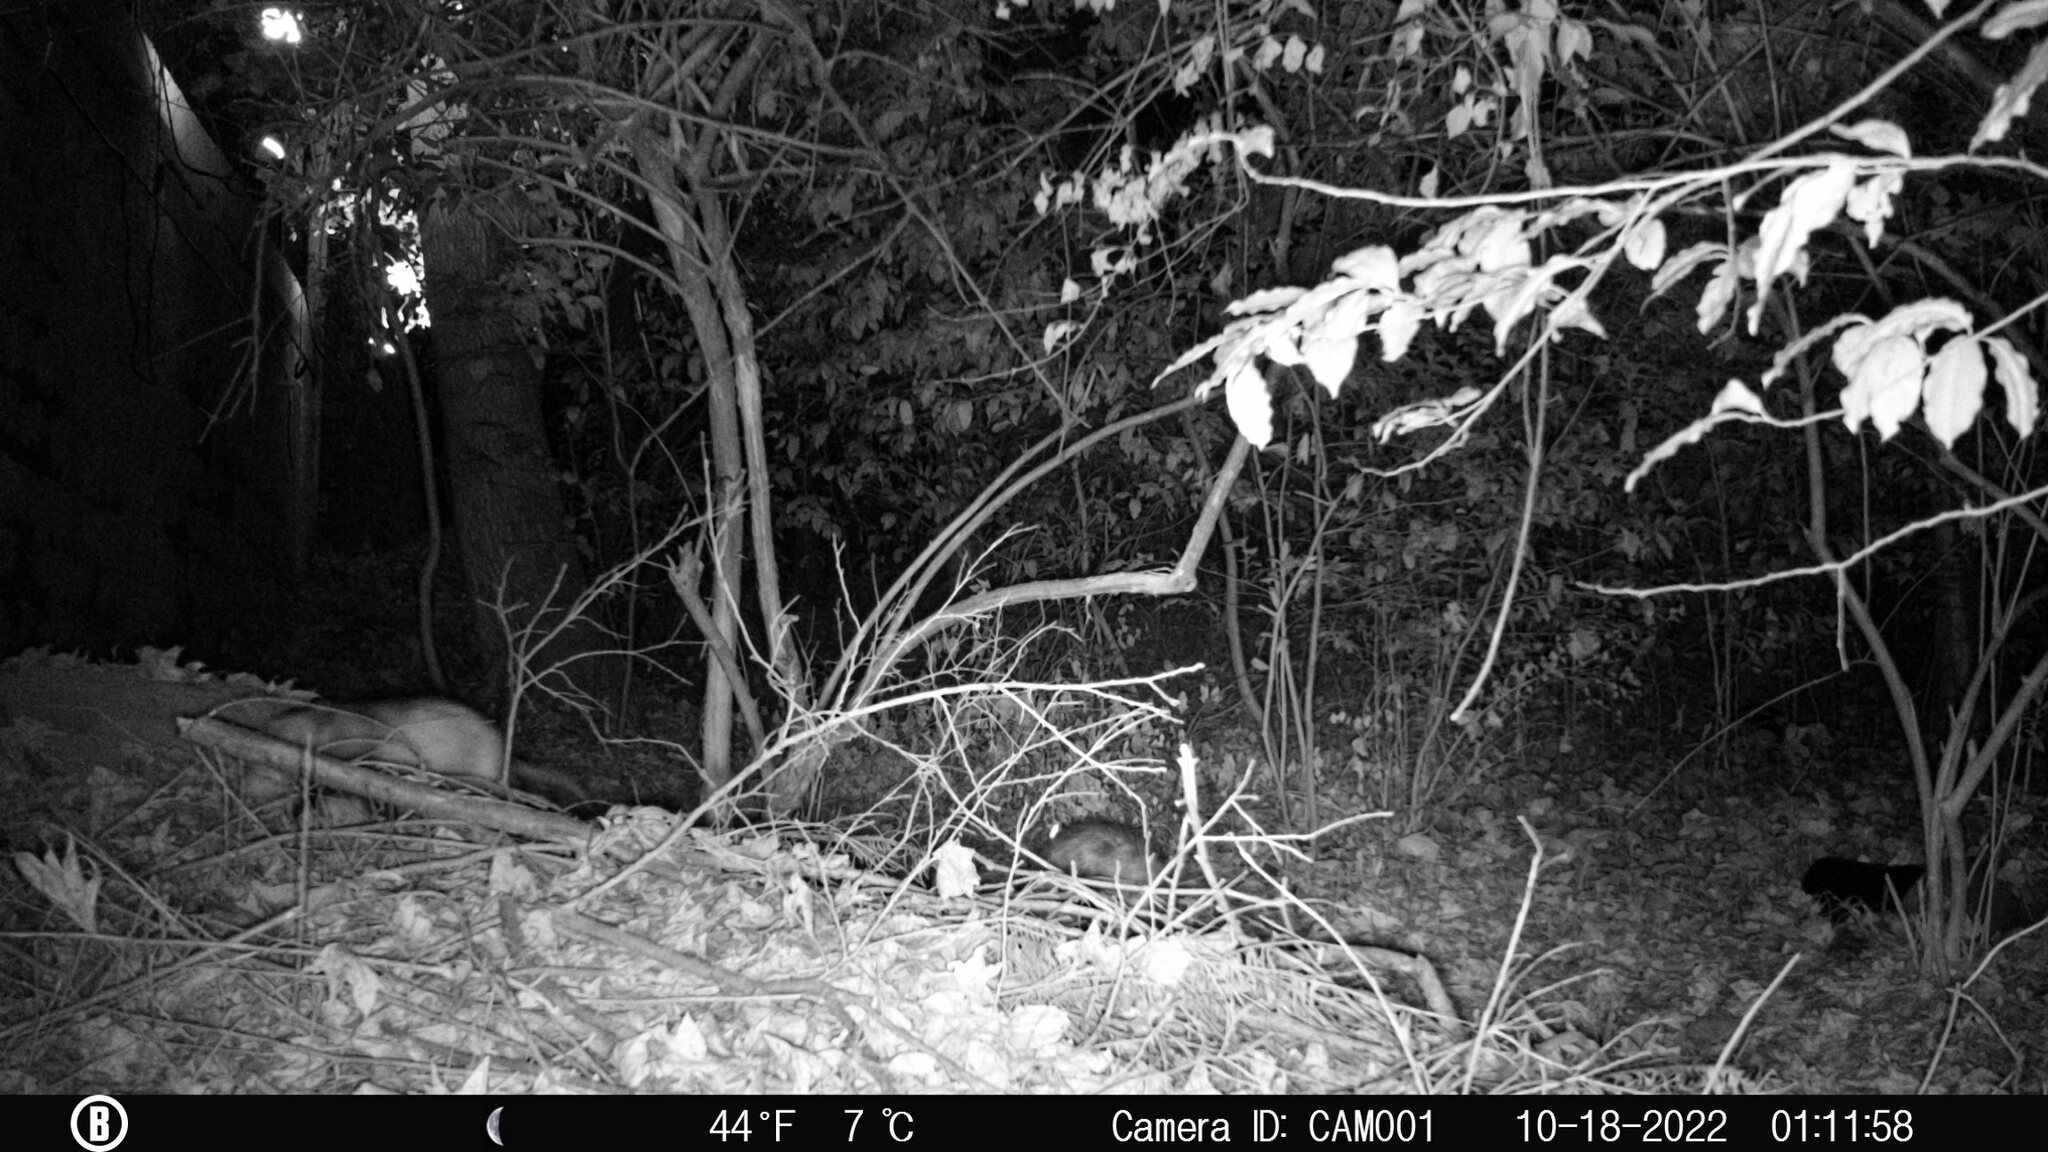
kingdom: Animalia
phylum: Chordata
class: Mammalia
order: Didelphimorphia
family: Didelphidae
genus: Didelphis
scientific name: Didelphis virginiana
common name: Virginia opossum
